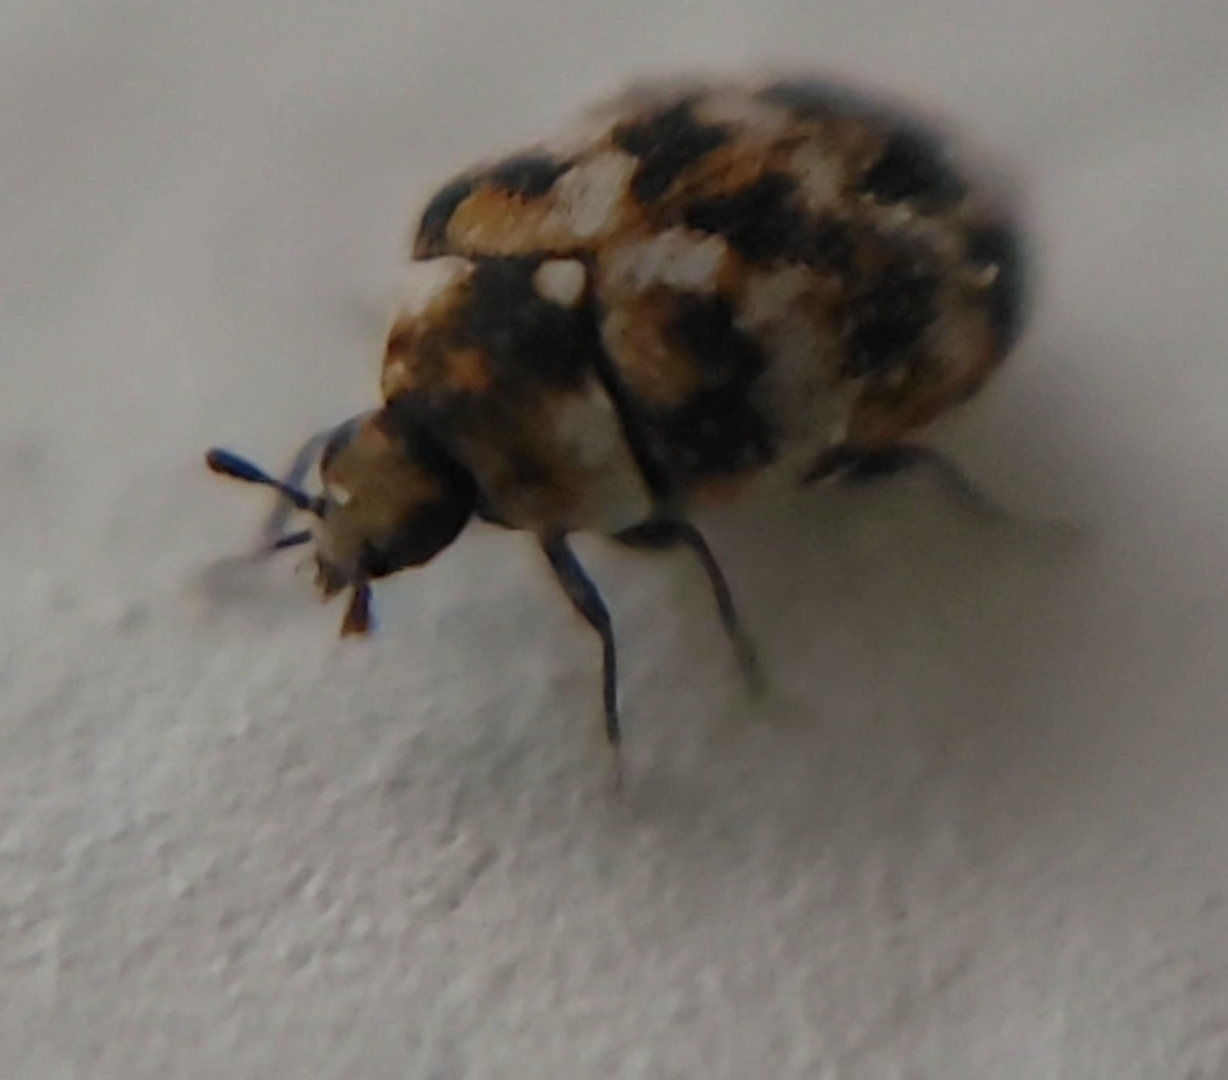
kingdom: Animalia
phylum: Arthropoda
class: Insecta
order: Coleoptera
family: Dermestidae
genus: Anthrenus
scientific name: Anthrenus verbasci
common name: Varied carpet beetle
